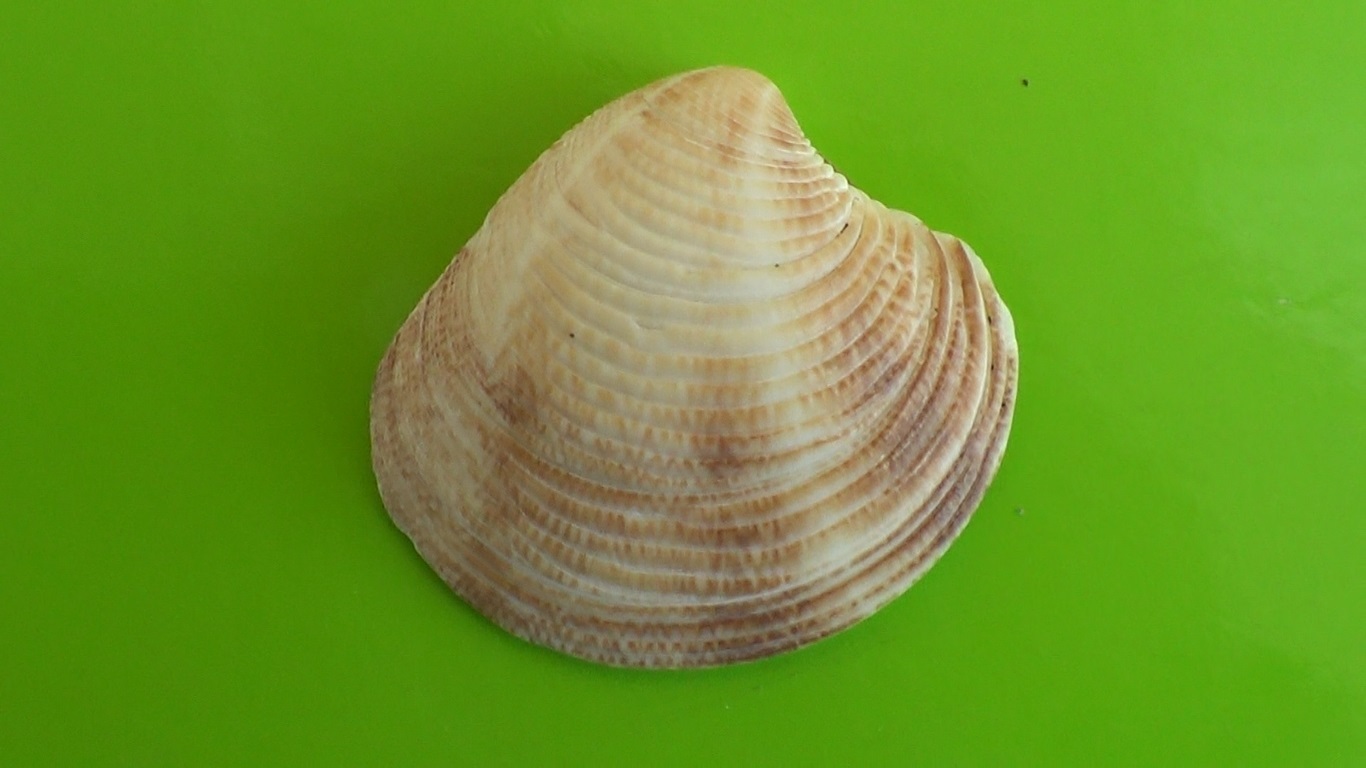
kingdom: Animalia
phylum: Mollusca
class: Bivalvia
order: Venerida
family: Veneridae
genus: Chamelea
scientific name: Chamelea gallina
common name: Chicken venus
